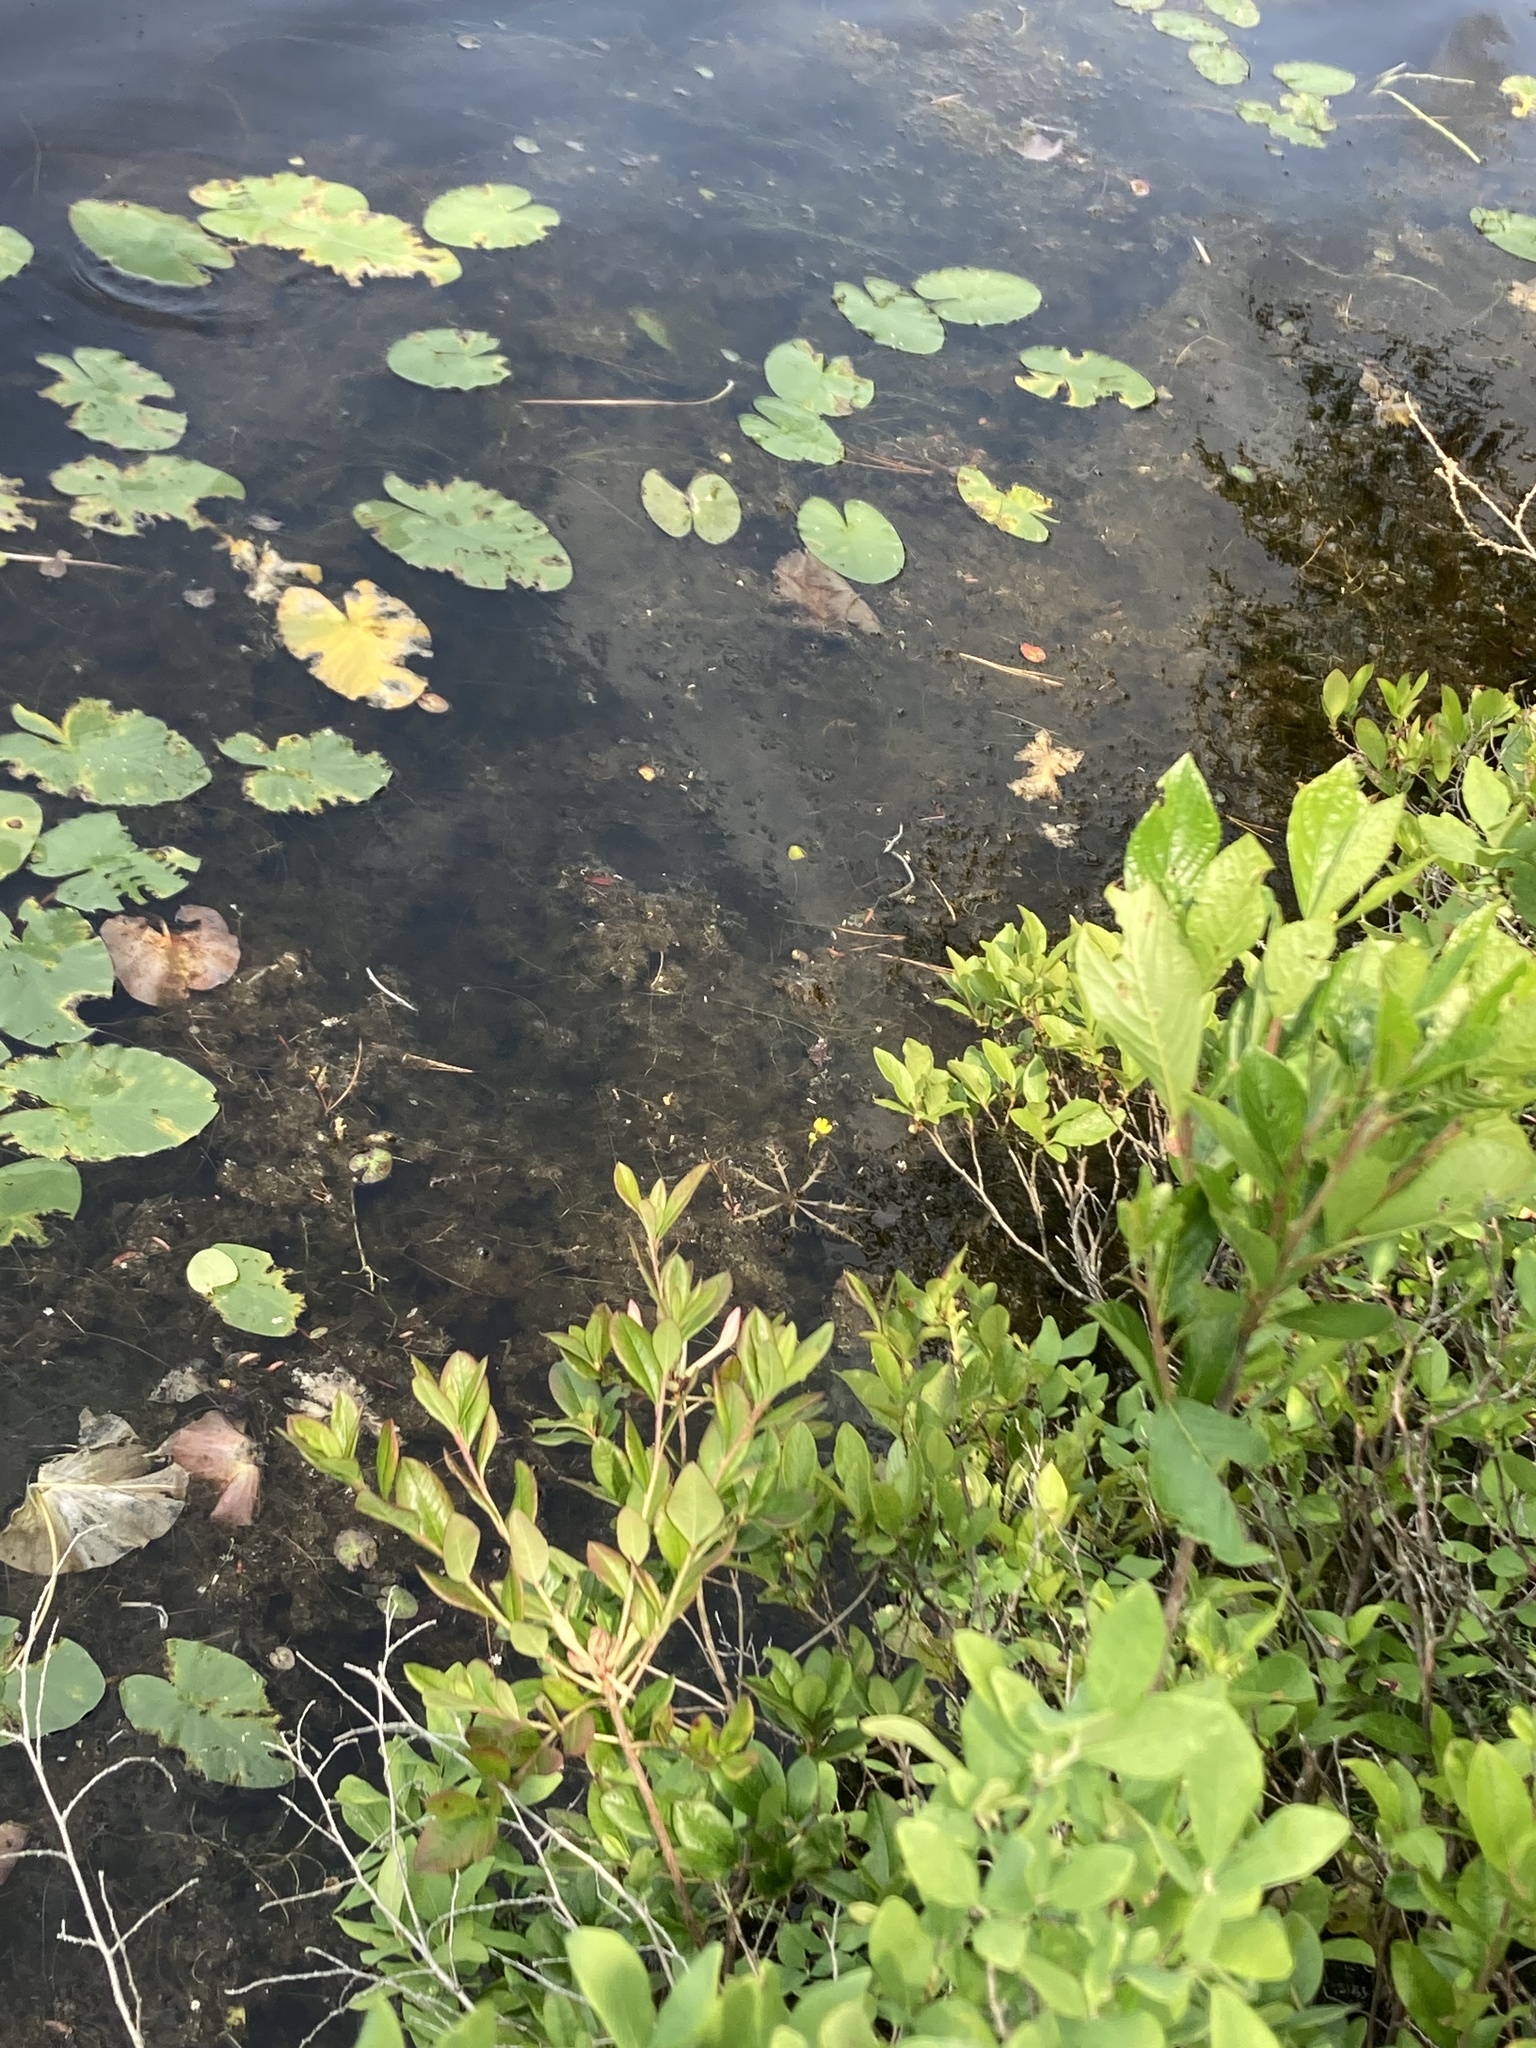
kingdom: Plantae
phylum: Tracheophyta
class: Magnoliopsida
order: Lamiales
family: Lentibulariaceae
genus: Utricularia
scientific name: Utricularia inflata
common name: Floating bladderwort
